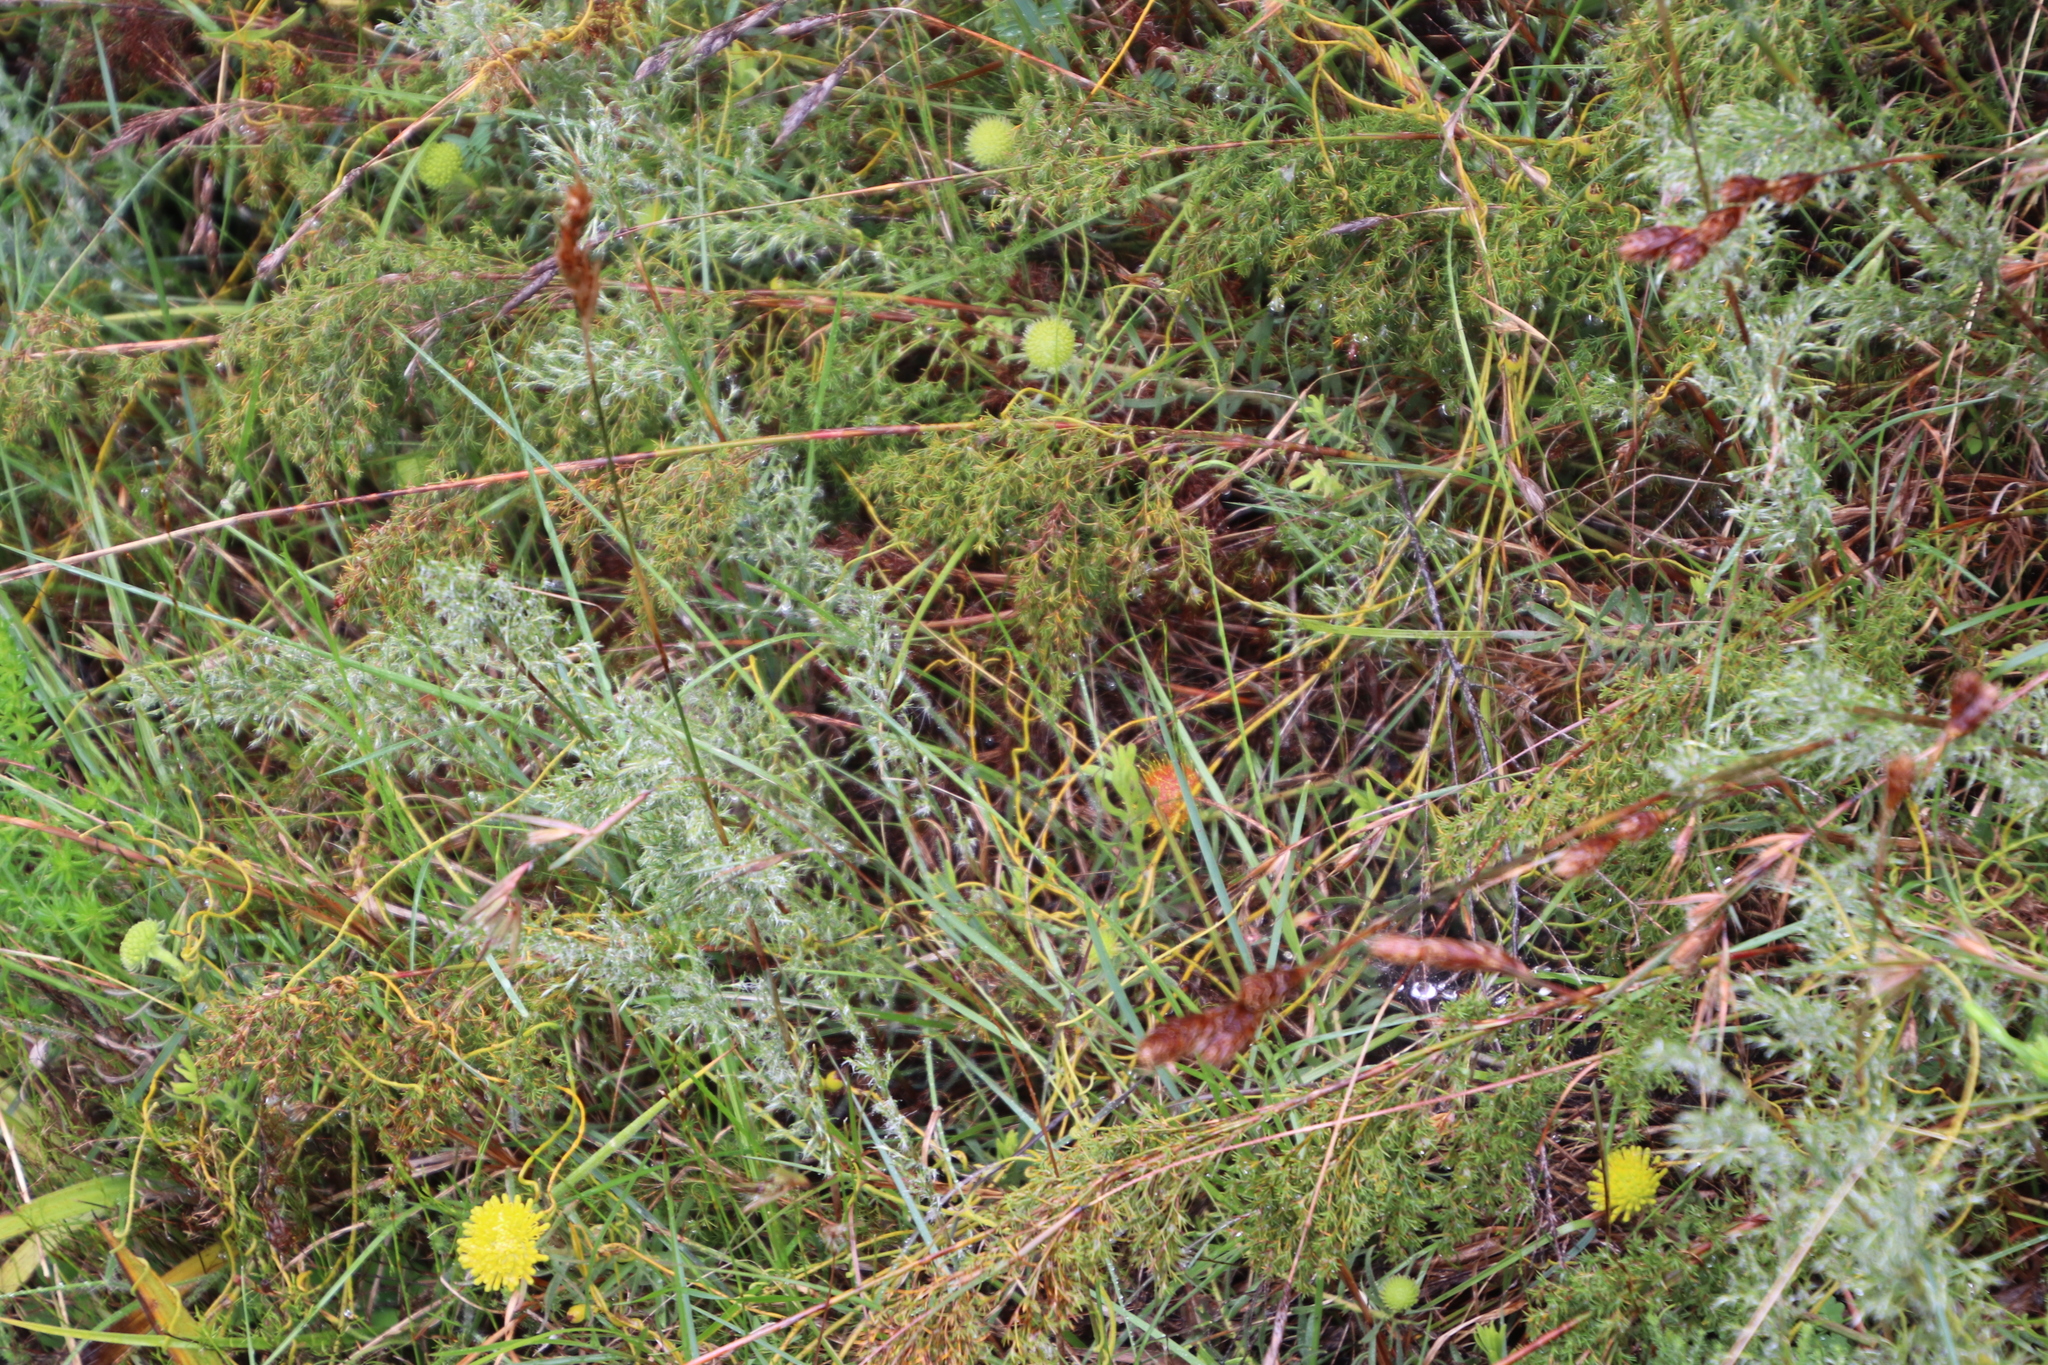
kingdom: Plantae
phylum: Tracheophyta
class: Magnoliopsida
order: Proteales
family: Proteaceae
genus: Leucospermum
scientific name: Leucospermum prostratum
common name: Yellow-trailing pincushion
